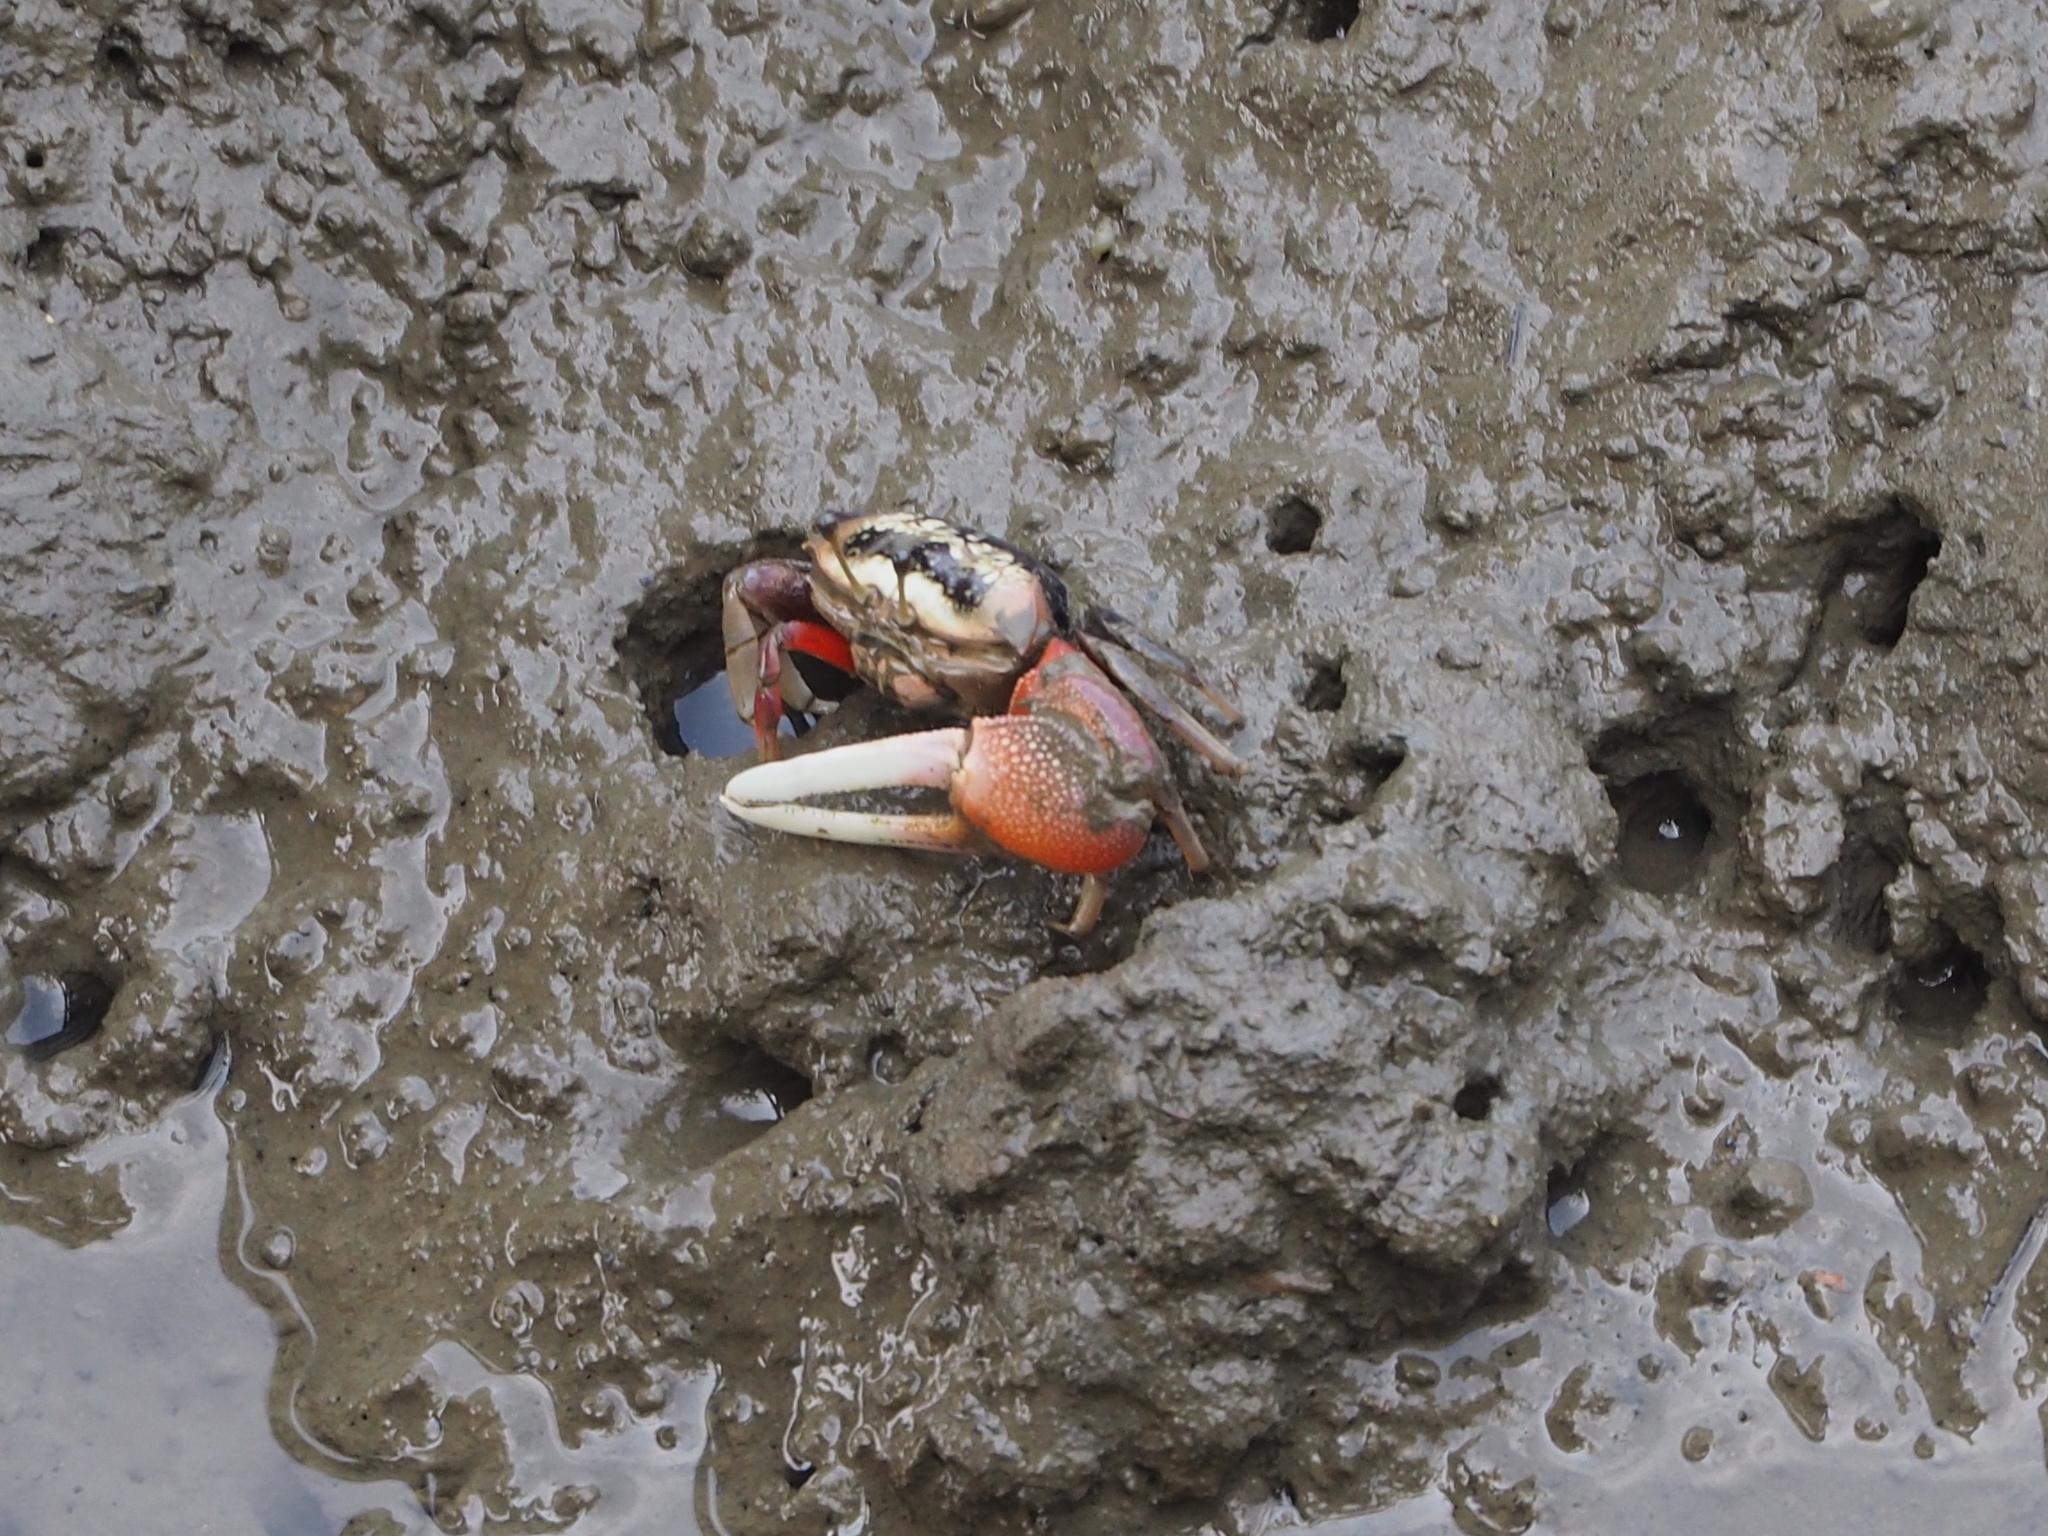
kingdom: Animalia
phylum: Arthropoda
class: Malacostraca
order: Decapoda
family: Ocypodidae
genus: Tubuca
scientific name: Tubuca arcuata
